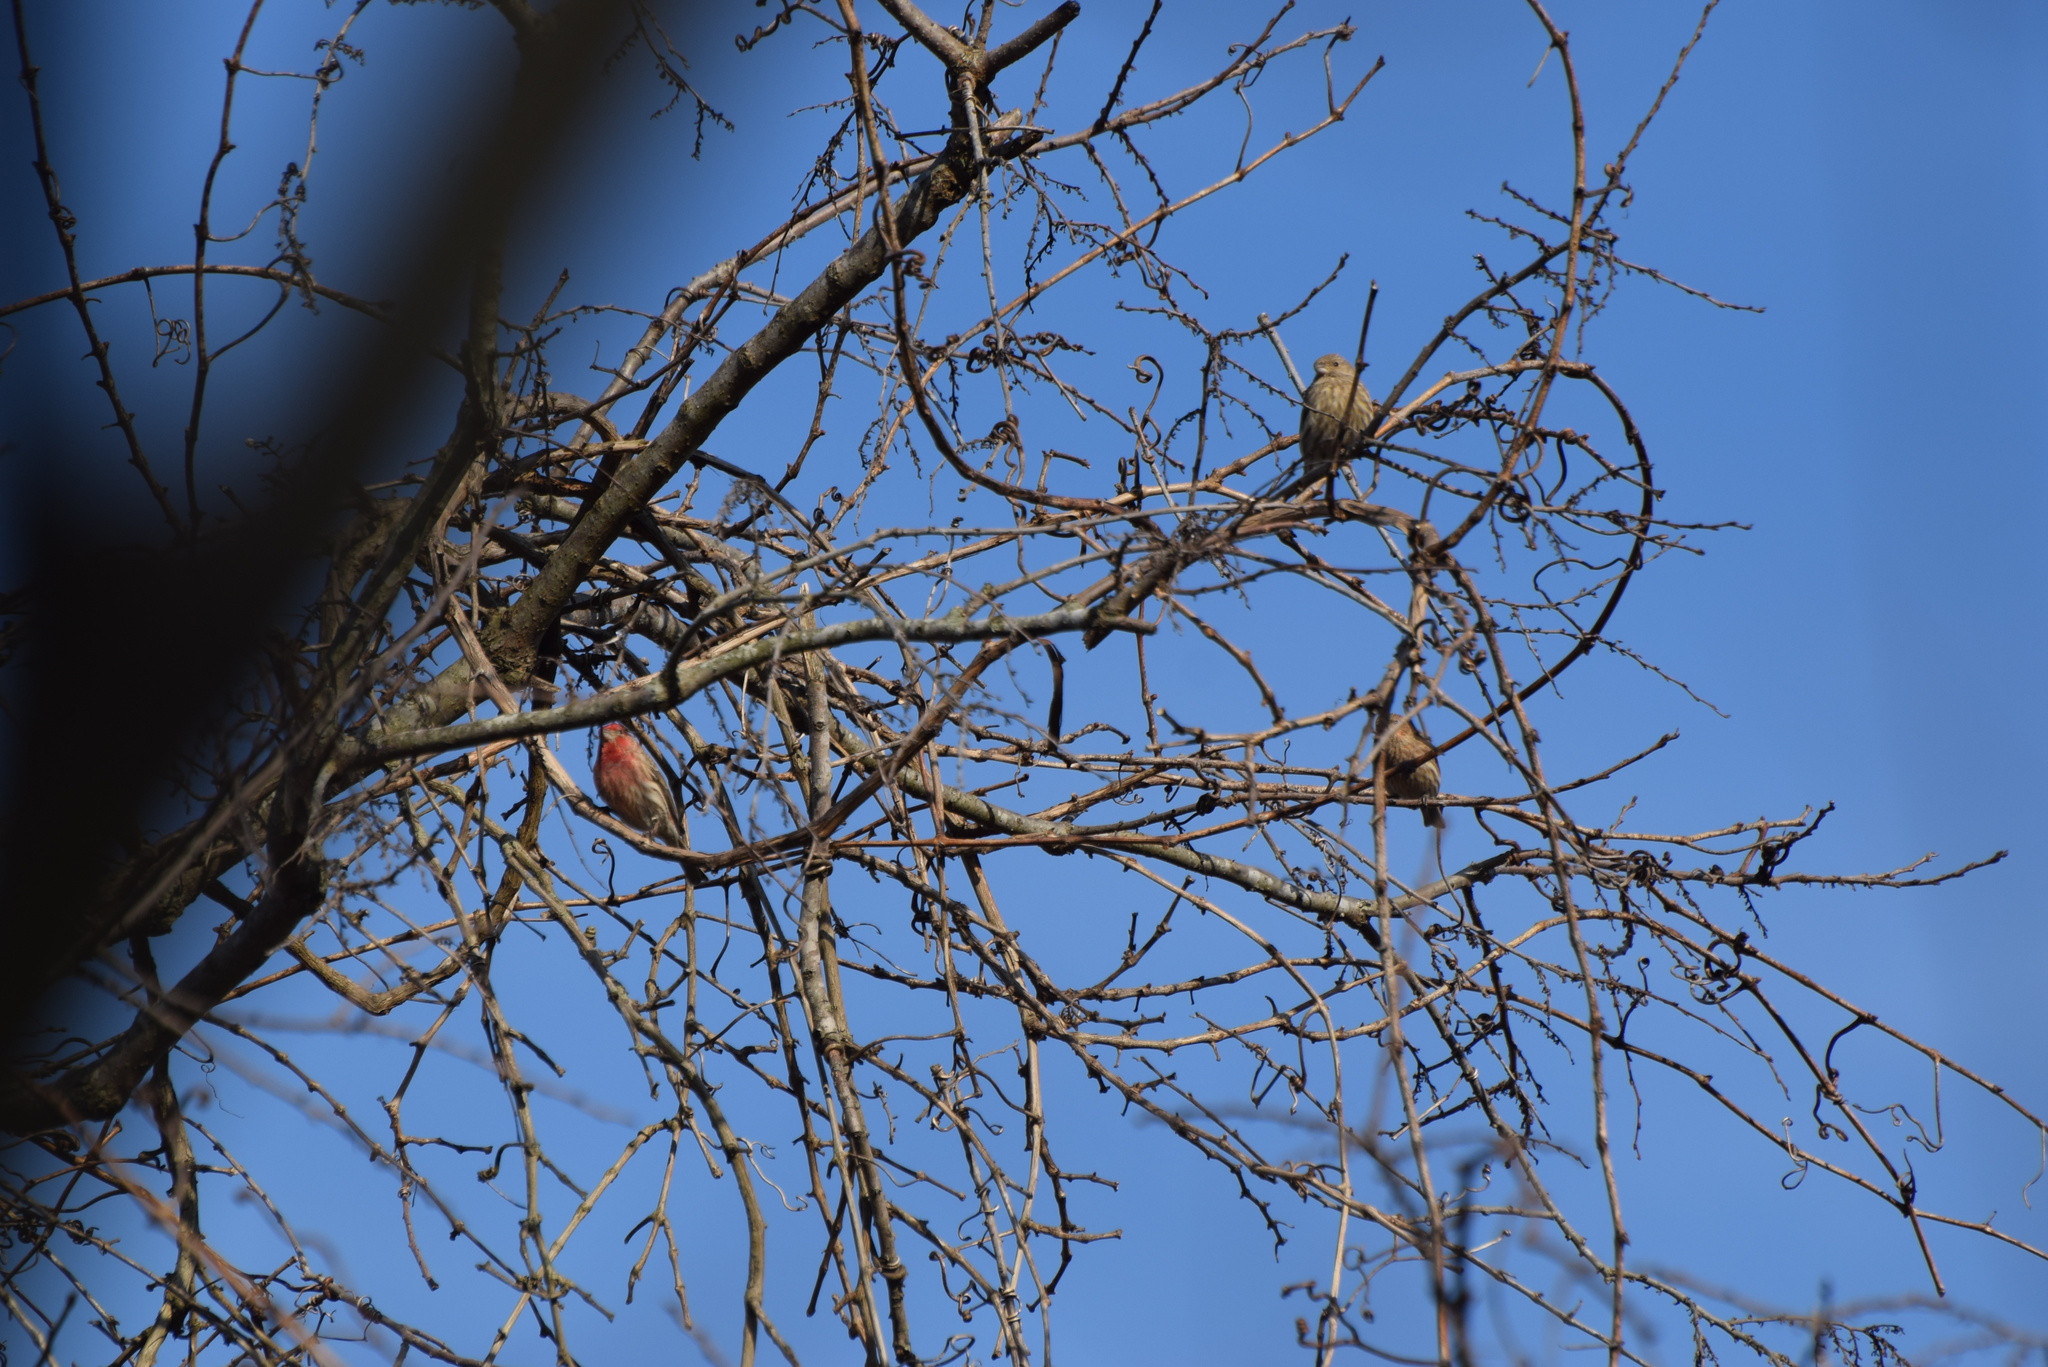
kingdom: Animalia
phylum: Chordata
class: Aves
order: Passeriformes
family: Fringillidae
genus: Haemorhous
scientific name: Haemorhous mexicanus
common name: House finch
